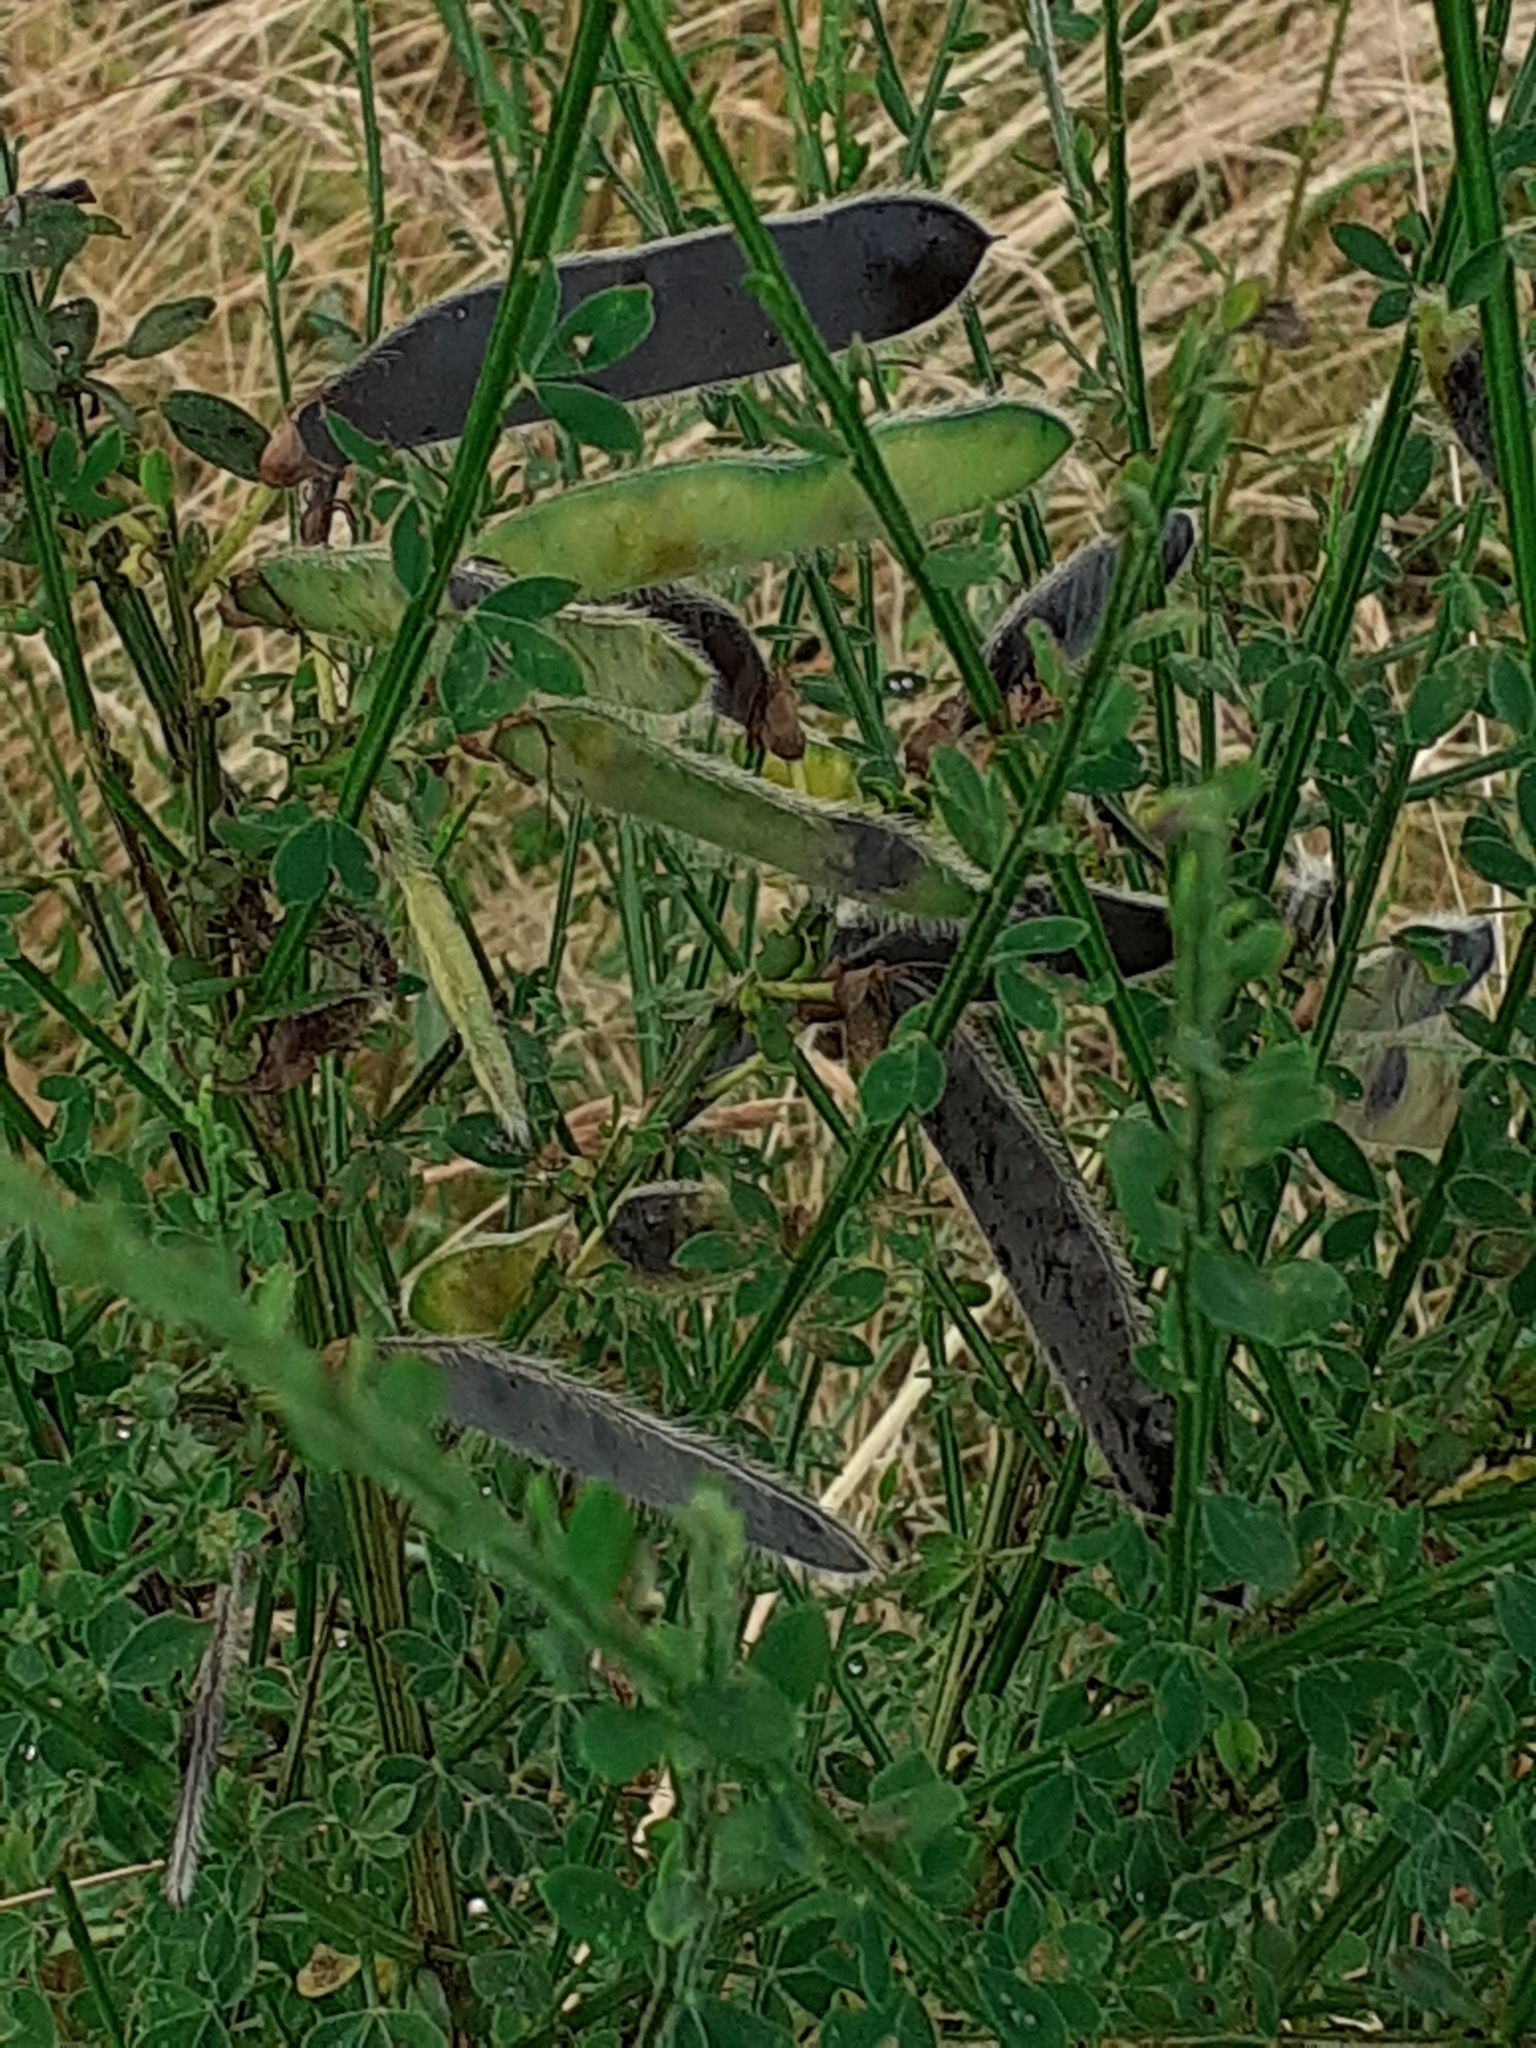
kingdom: Plantae
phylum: Tracheophyta
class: Magnoliopsida
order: Fabales
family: Fabaceae
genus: Cytisus
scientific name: Cytisus scoparius
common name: Scotch broom
